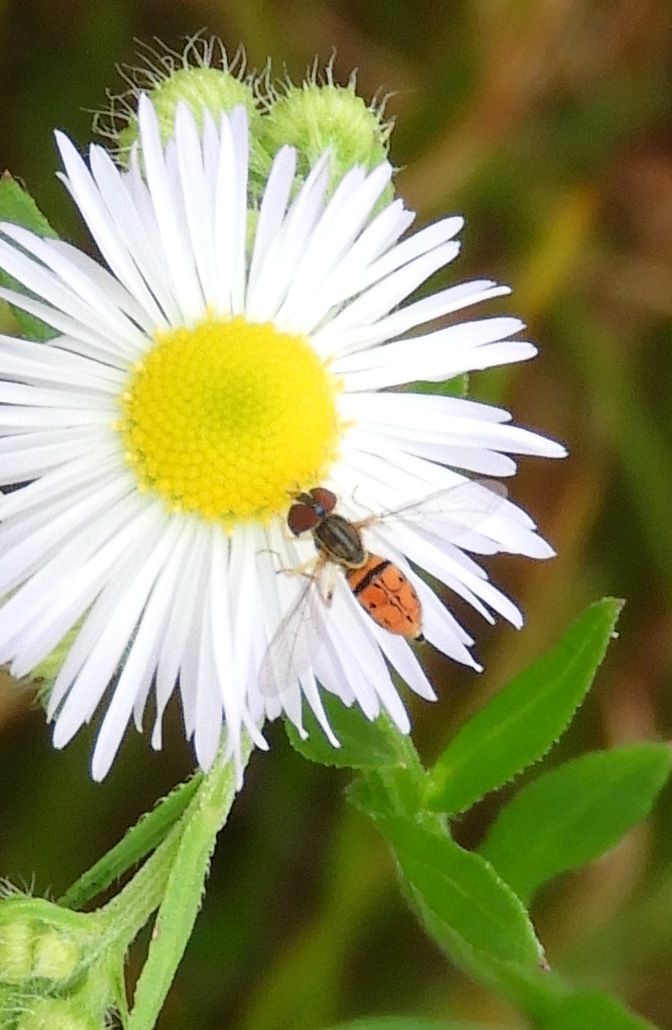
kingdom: Animalia
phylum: Arthropoda
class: Insecta
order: Diptera
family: Syrphidae
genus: Toxomerus
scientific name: Toxomerus boscii
